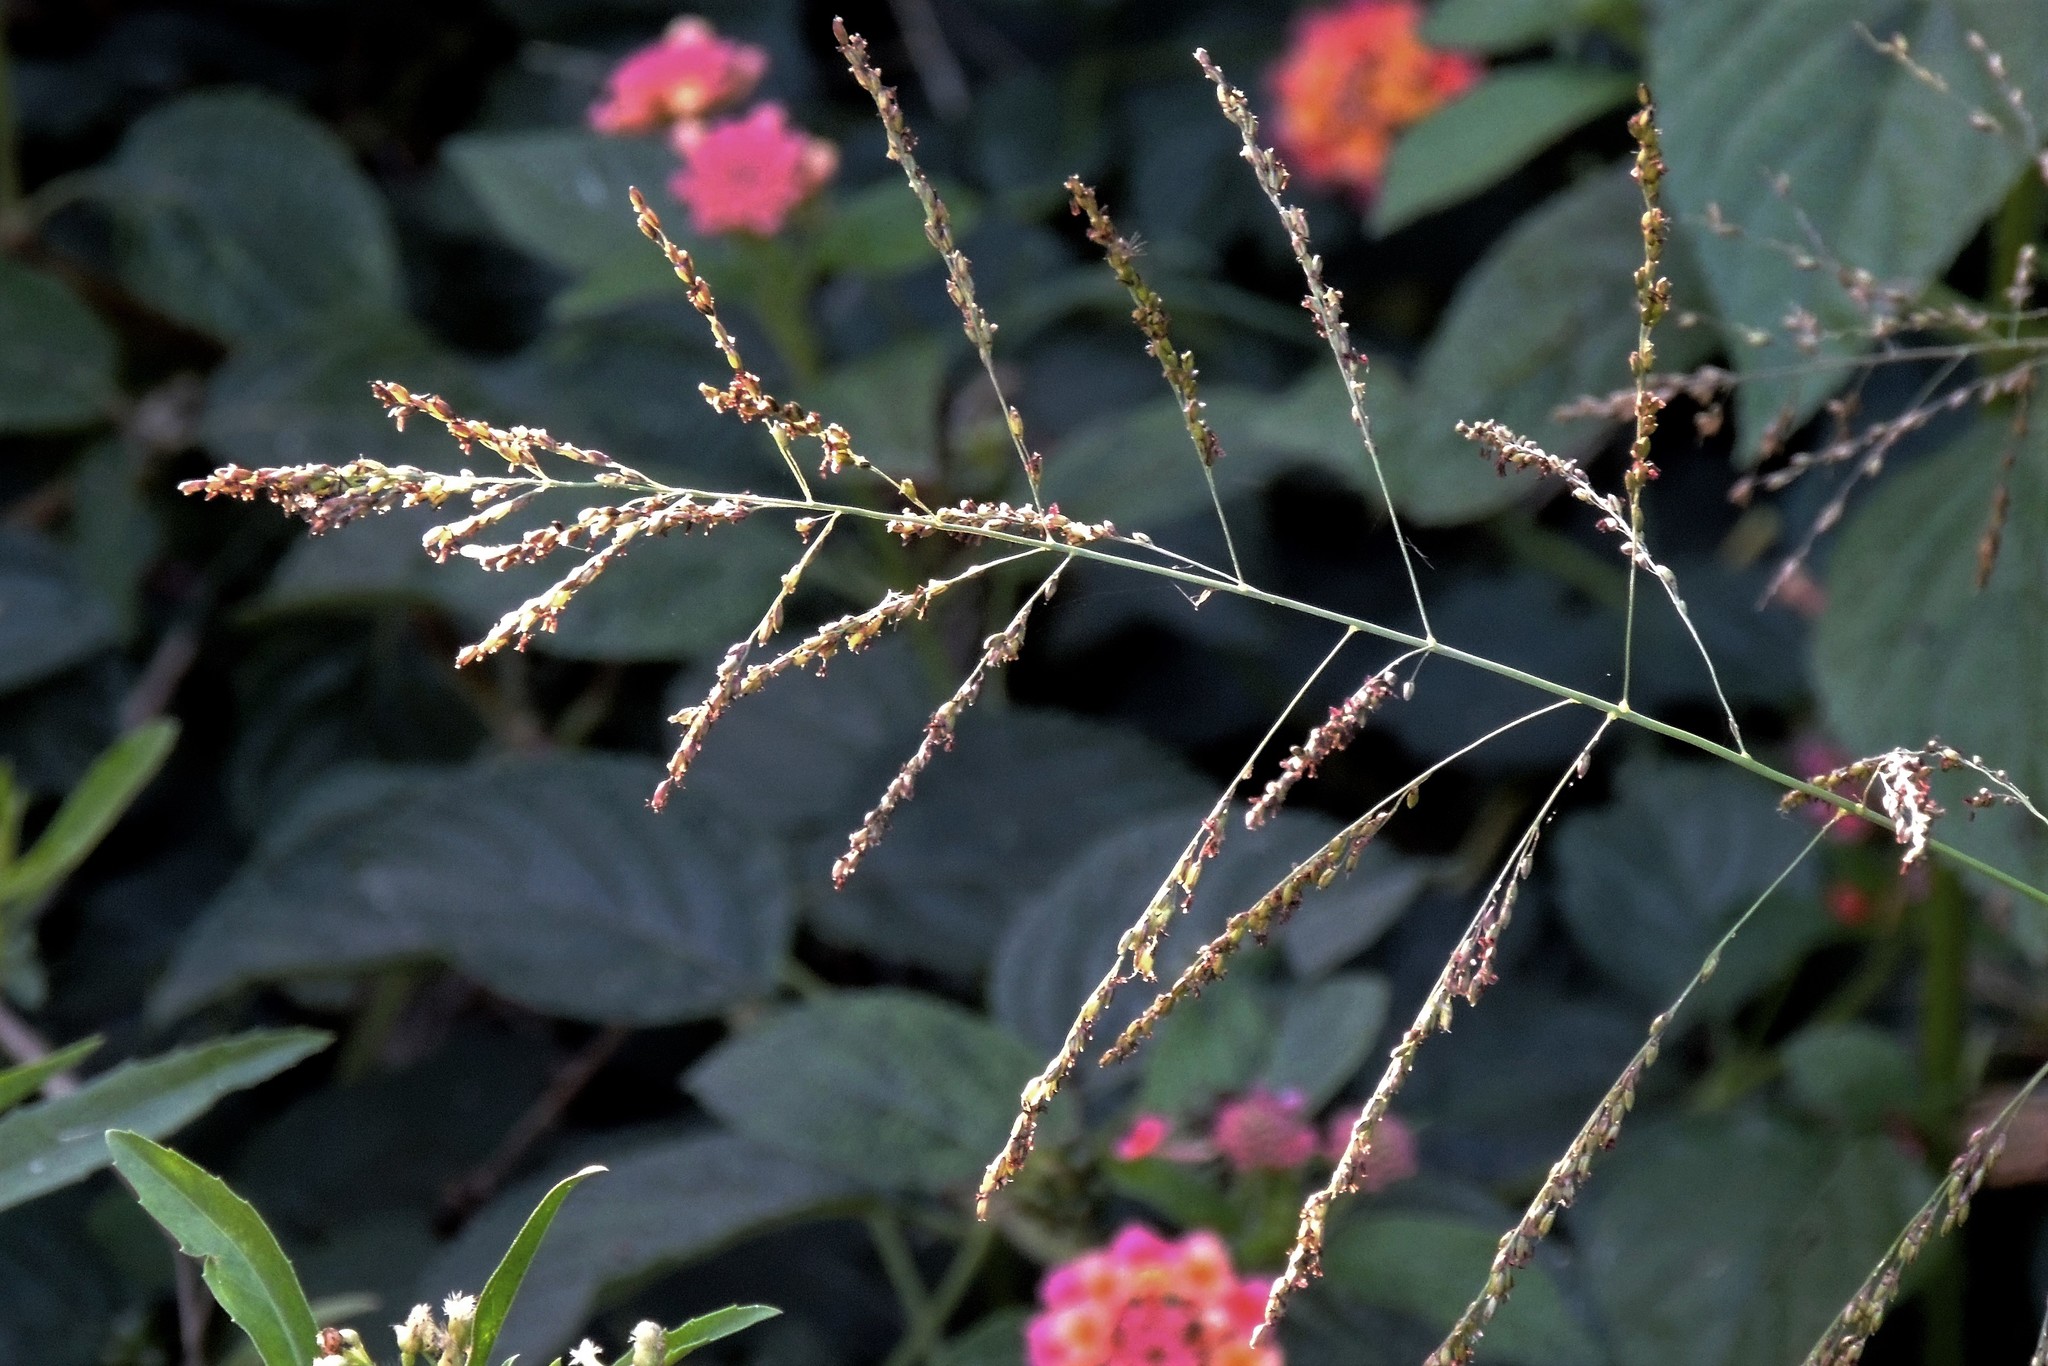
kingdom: Plantae
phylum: Tracheophyta
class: Liliopsida
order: Poales
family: Poaceae
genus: Sorghum
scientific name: Sorghum halepense
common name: Johnson-grass
